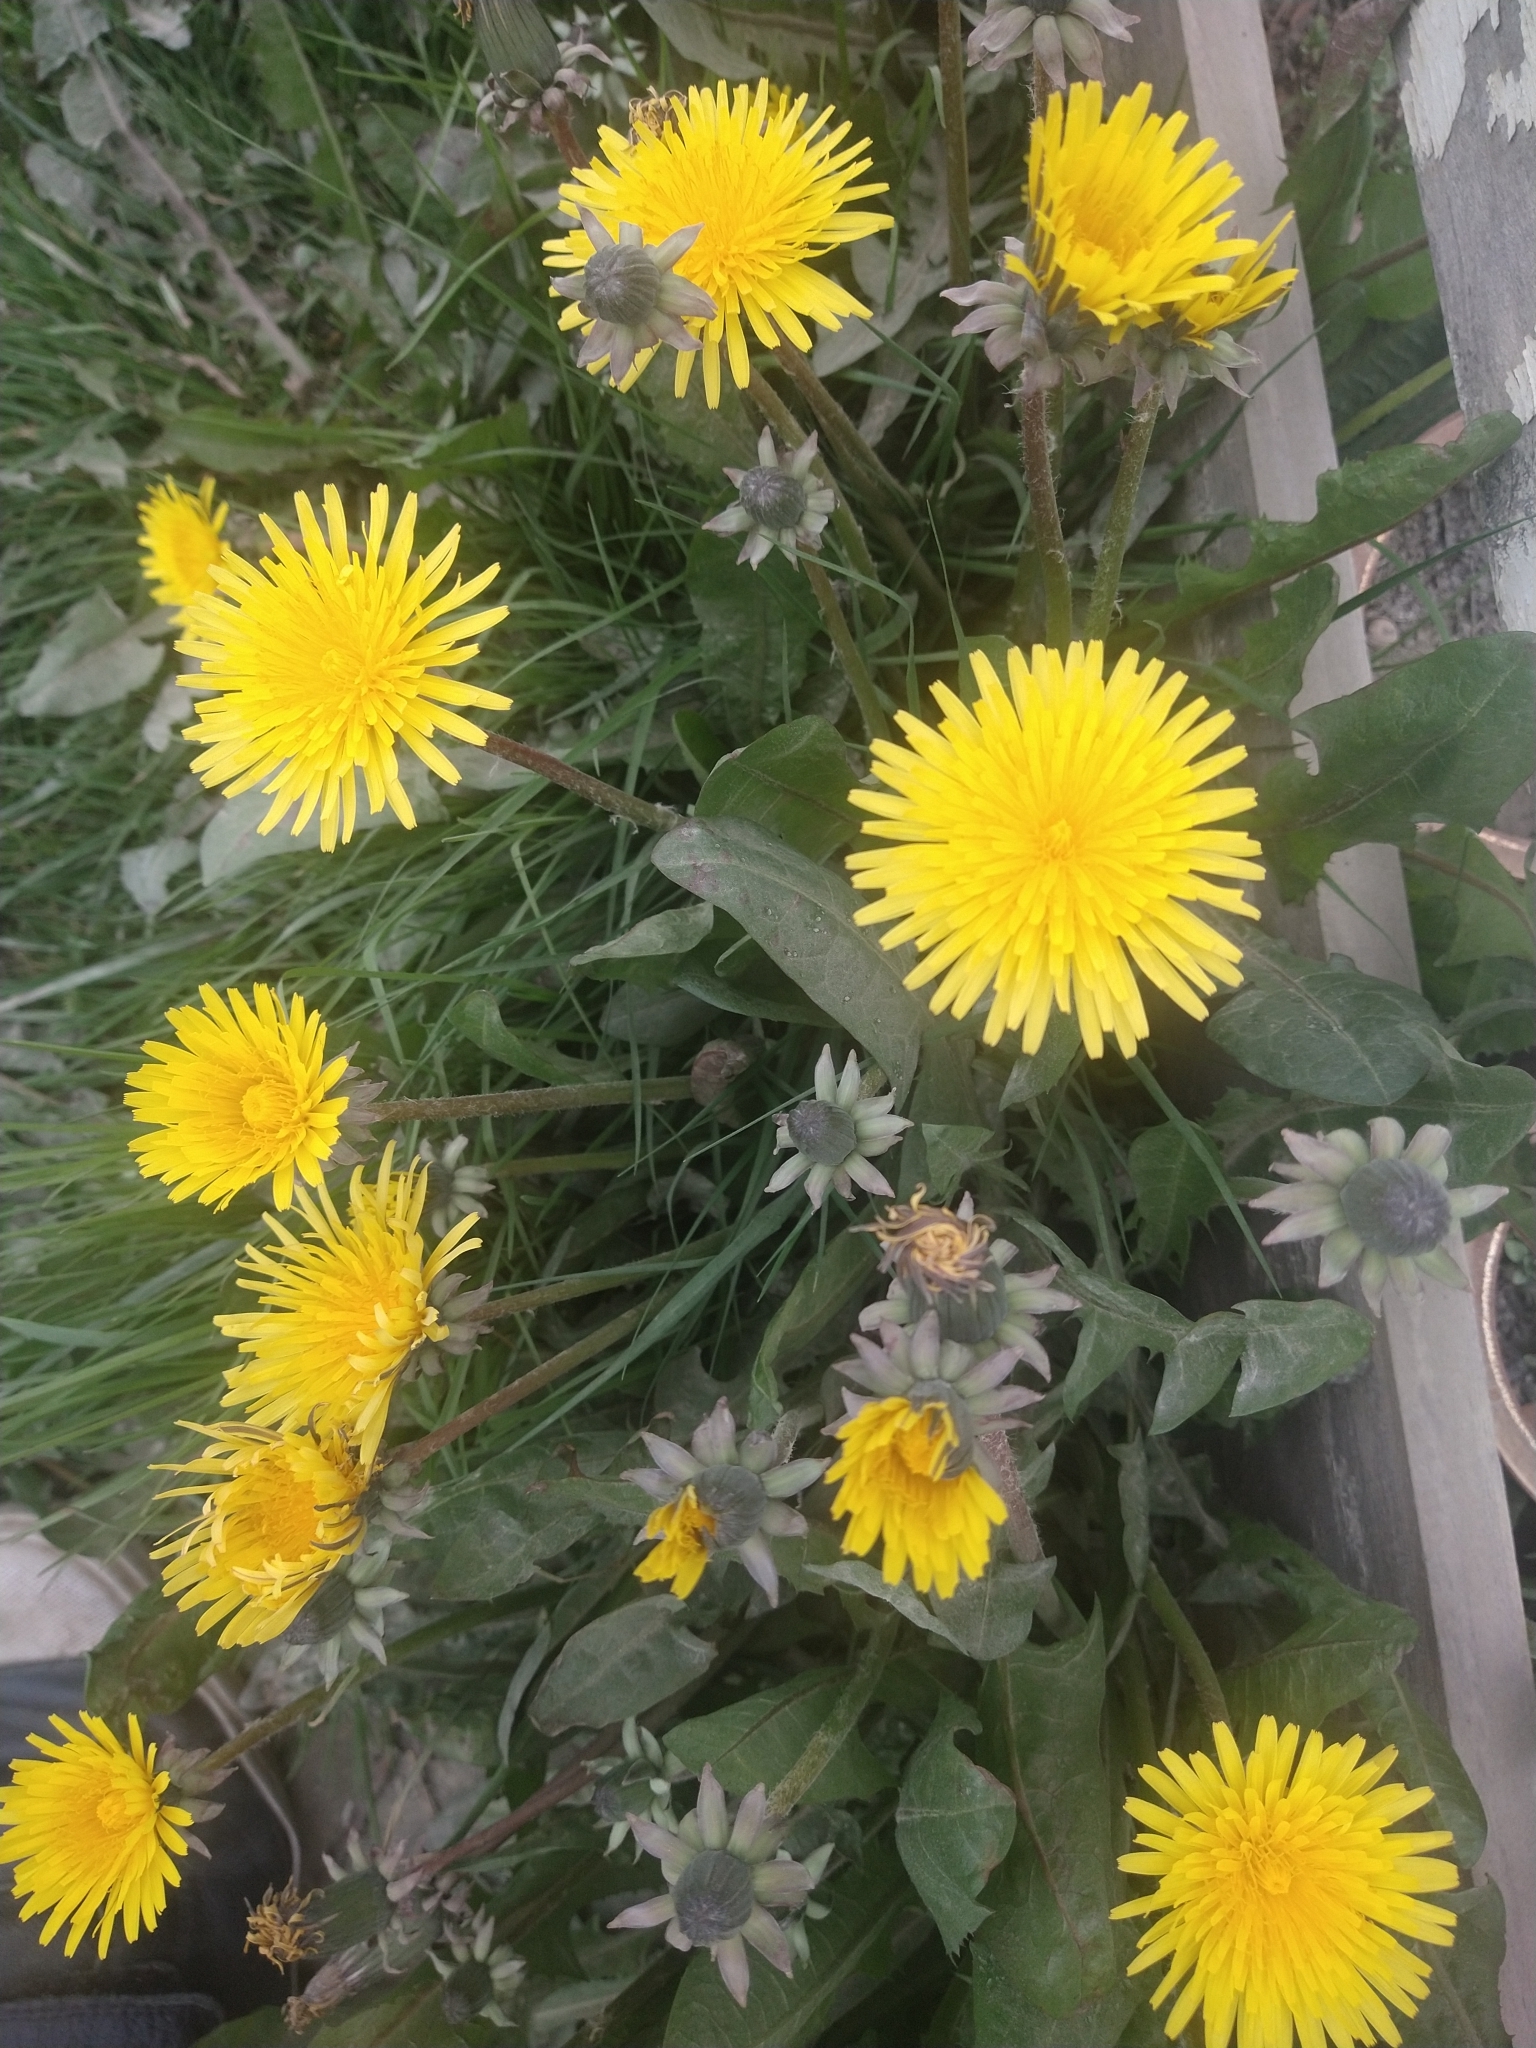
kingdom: Plantae
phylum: Tracheophyta
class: Magnoliopsida
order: Asterales
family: Asteraceae
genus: Taraxacum
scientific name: Taraxacum officinale
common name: Common dandelion
